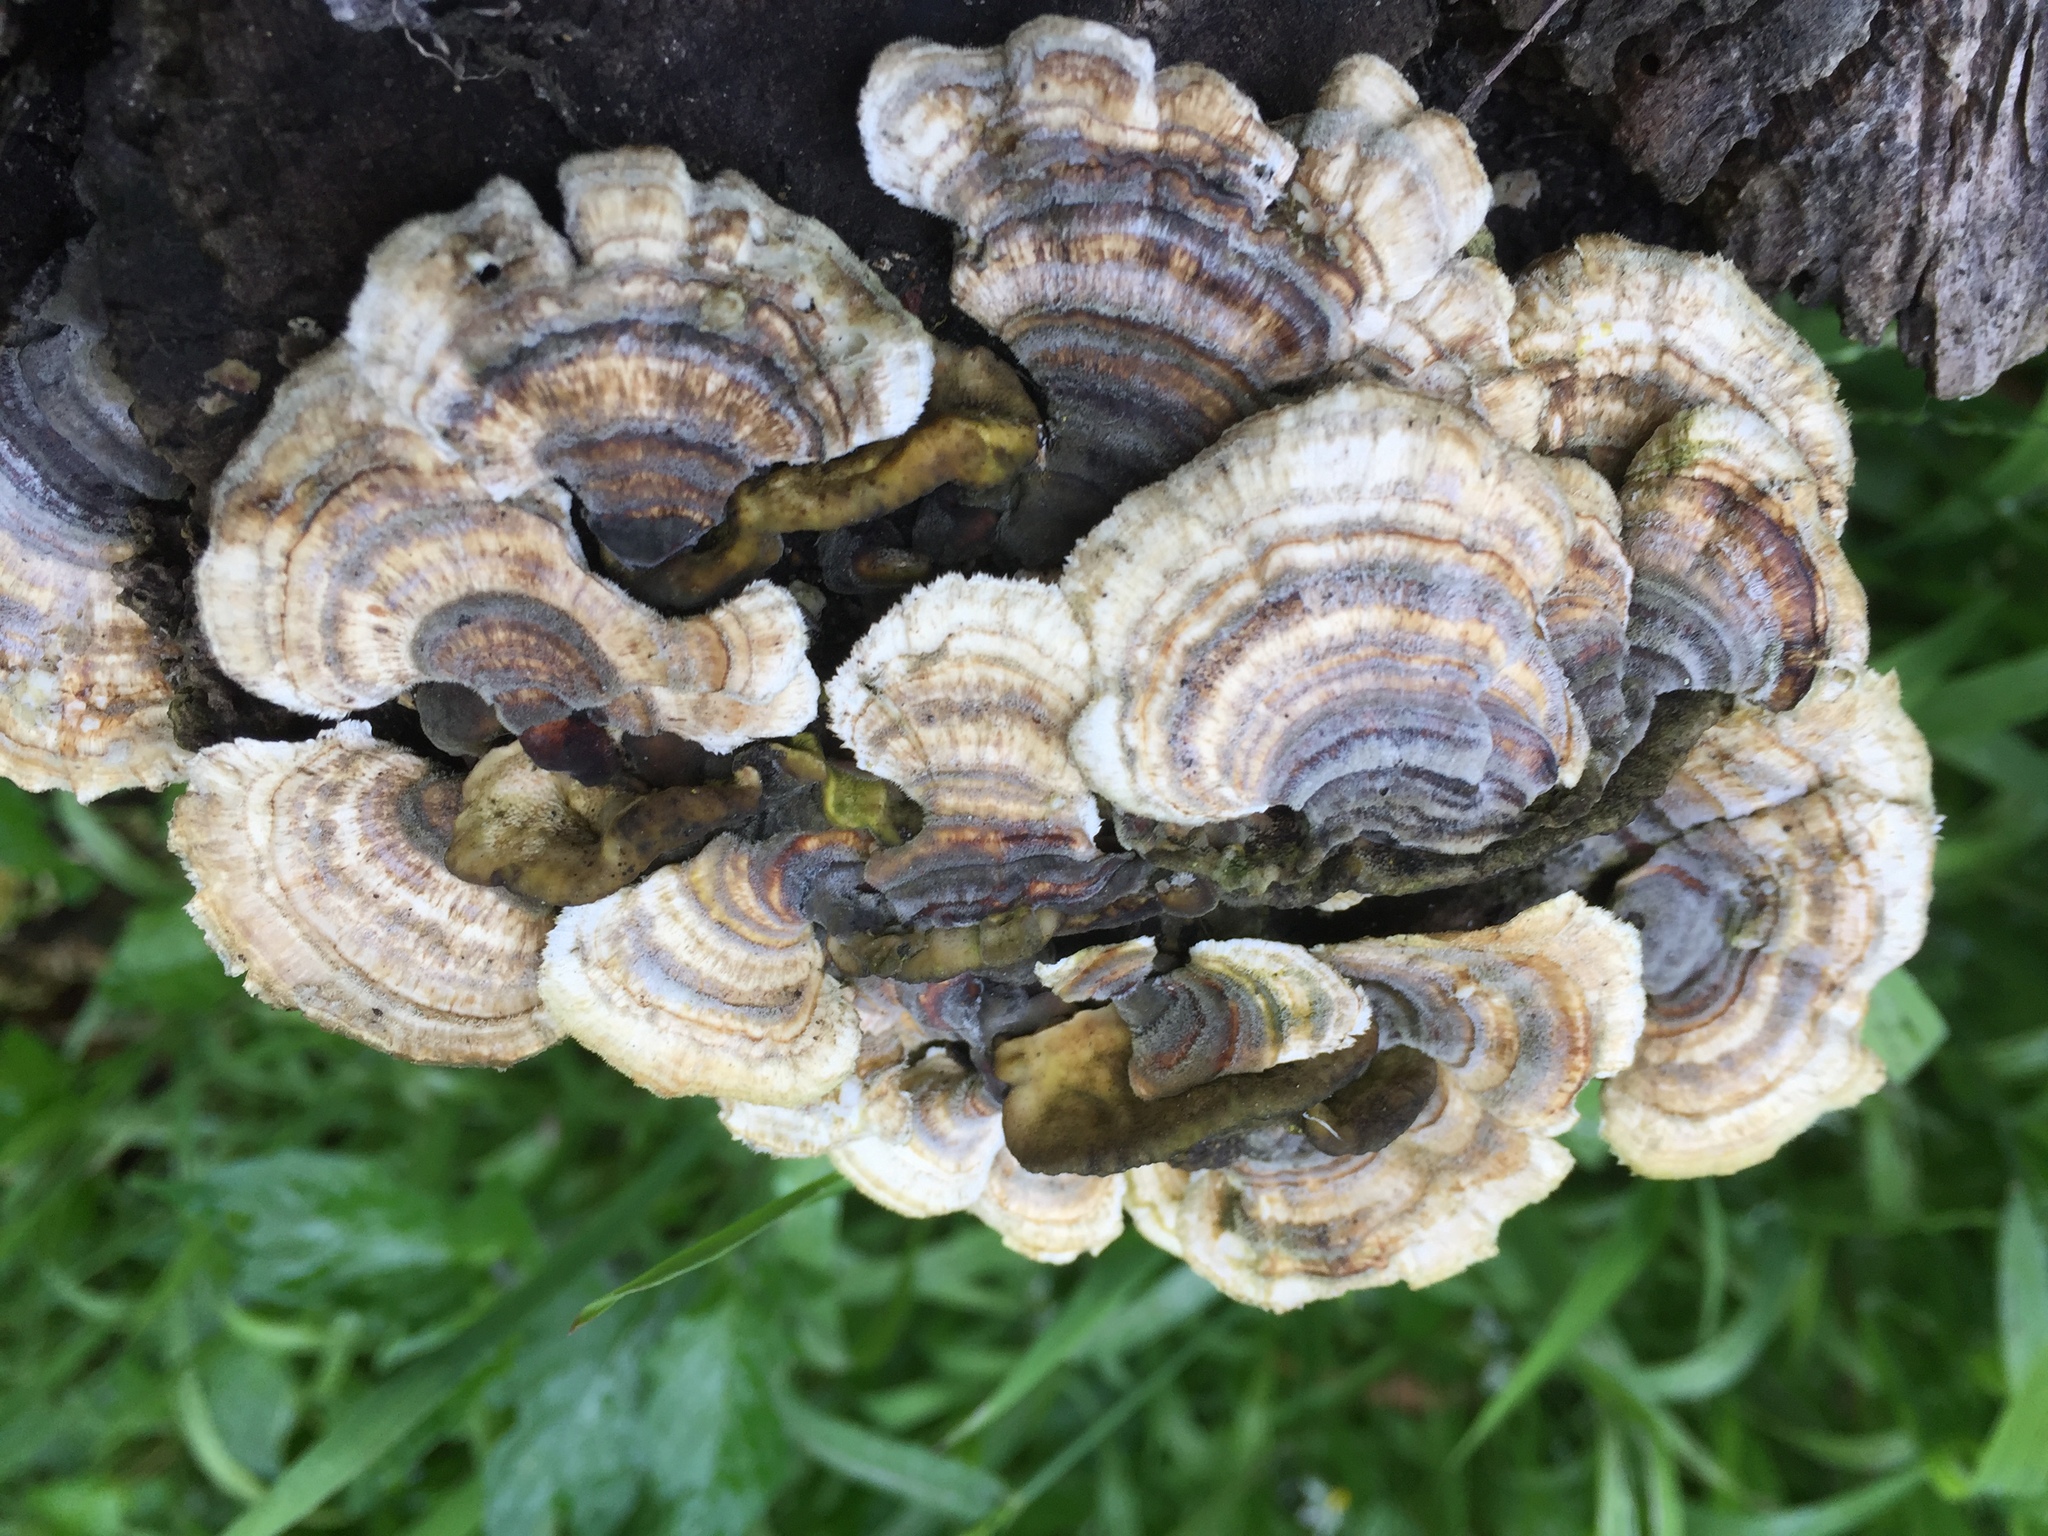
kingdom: Fungi
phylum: Basidiomycota
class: Agaricomycetes
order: Polyporales
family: Polyporaceae
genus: Trametes
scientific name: Trametes versicolor
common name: Turkeytail
